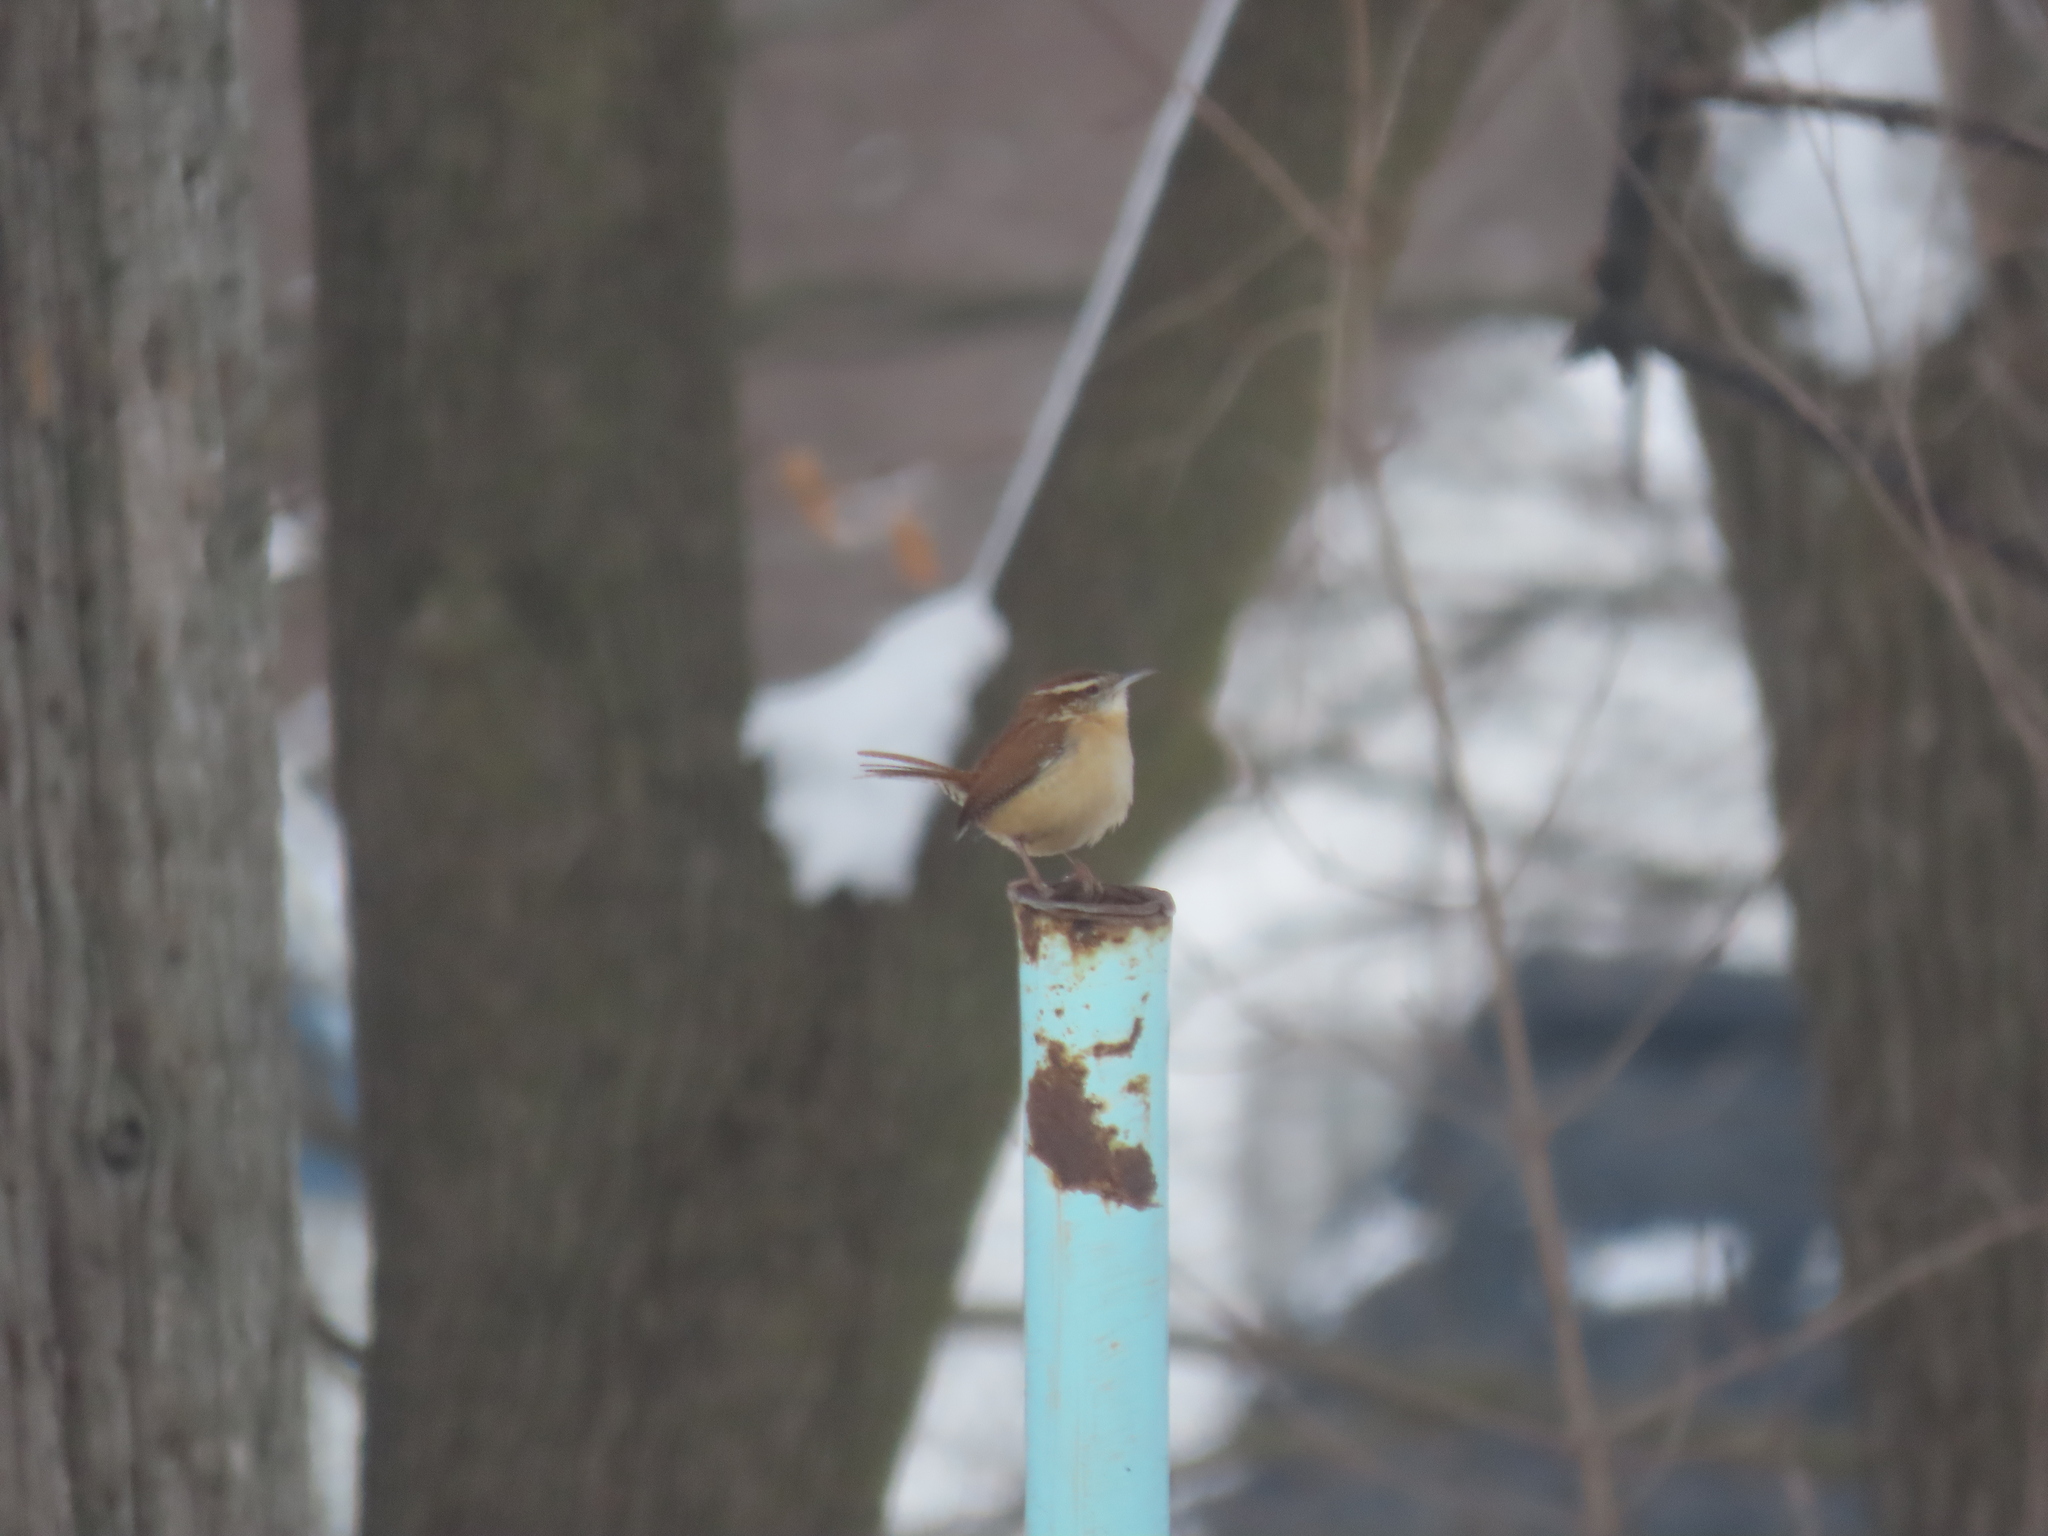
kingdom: Animalia
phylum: Chordata
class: Aves
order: Passeriformes
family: Troglodytidae
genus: Thryothorus
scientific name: Thryothorus ludovicianus
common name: Carolina wren
